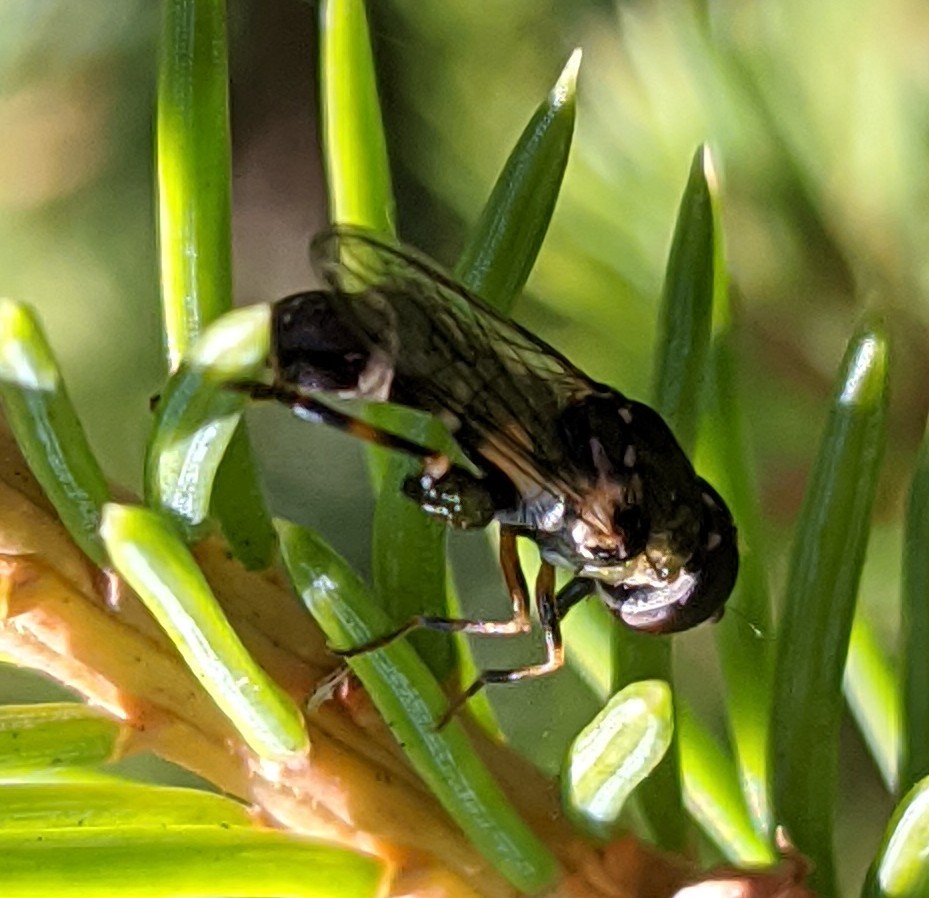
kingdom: Animalia
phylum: Arthropoda
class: Insecta
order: Diptera
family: Syrphidae
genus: Syritta
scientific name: Syritta pipiens
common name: Hover fly
